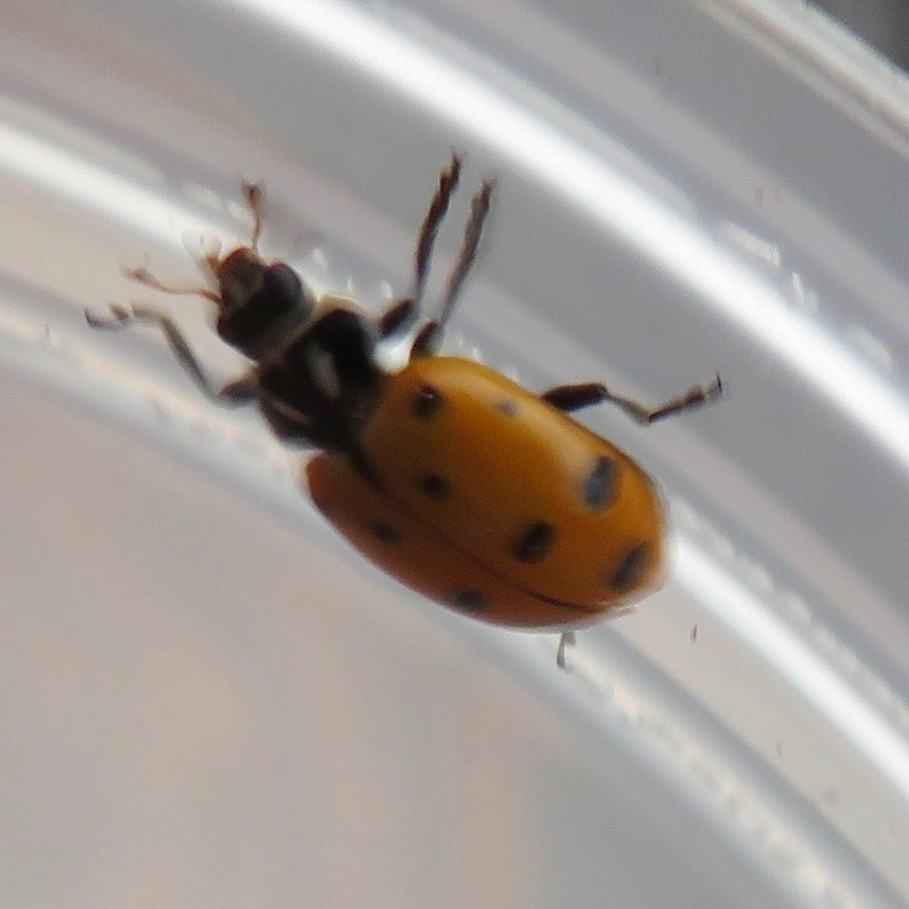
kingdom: Animalia
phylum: Arthropoda
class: Insecta
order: Coleoptera
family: Coccinellidae
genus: Hippodamia
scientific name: Hippodamia convergens
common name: Convergent lady beetle
